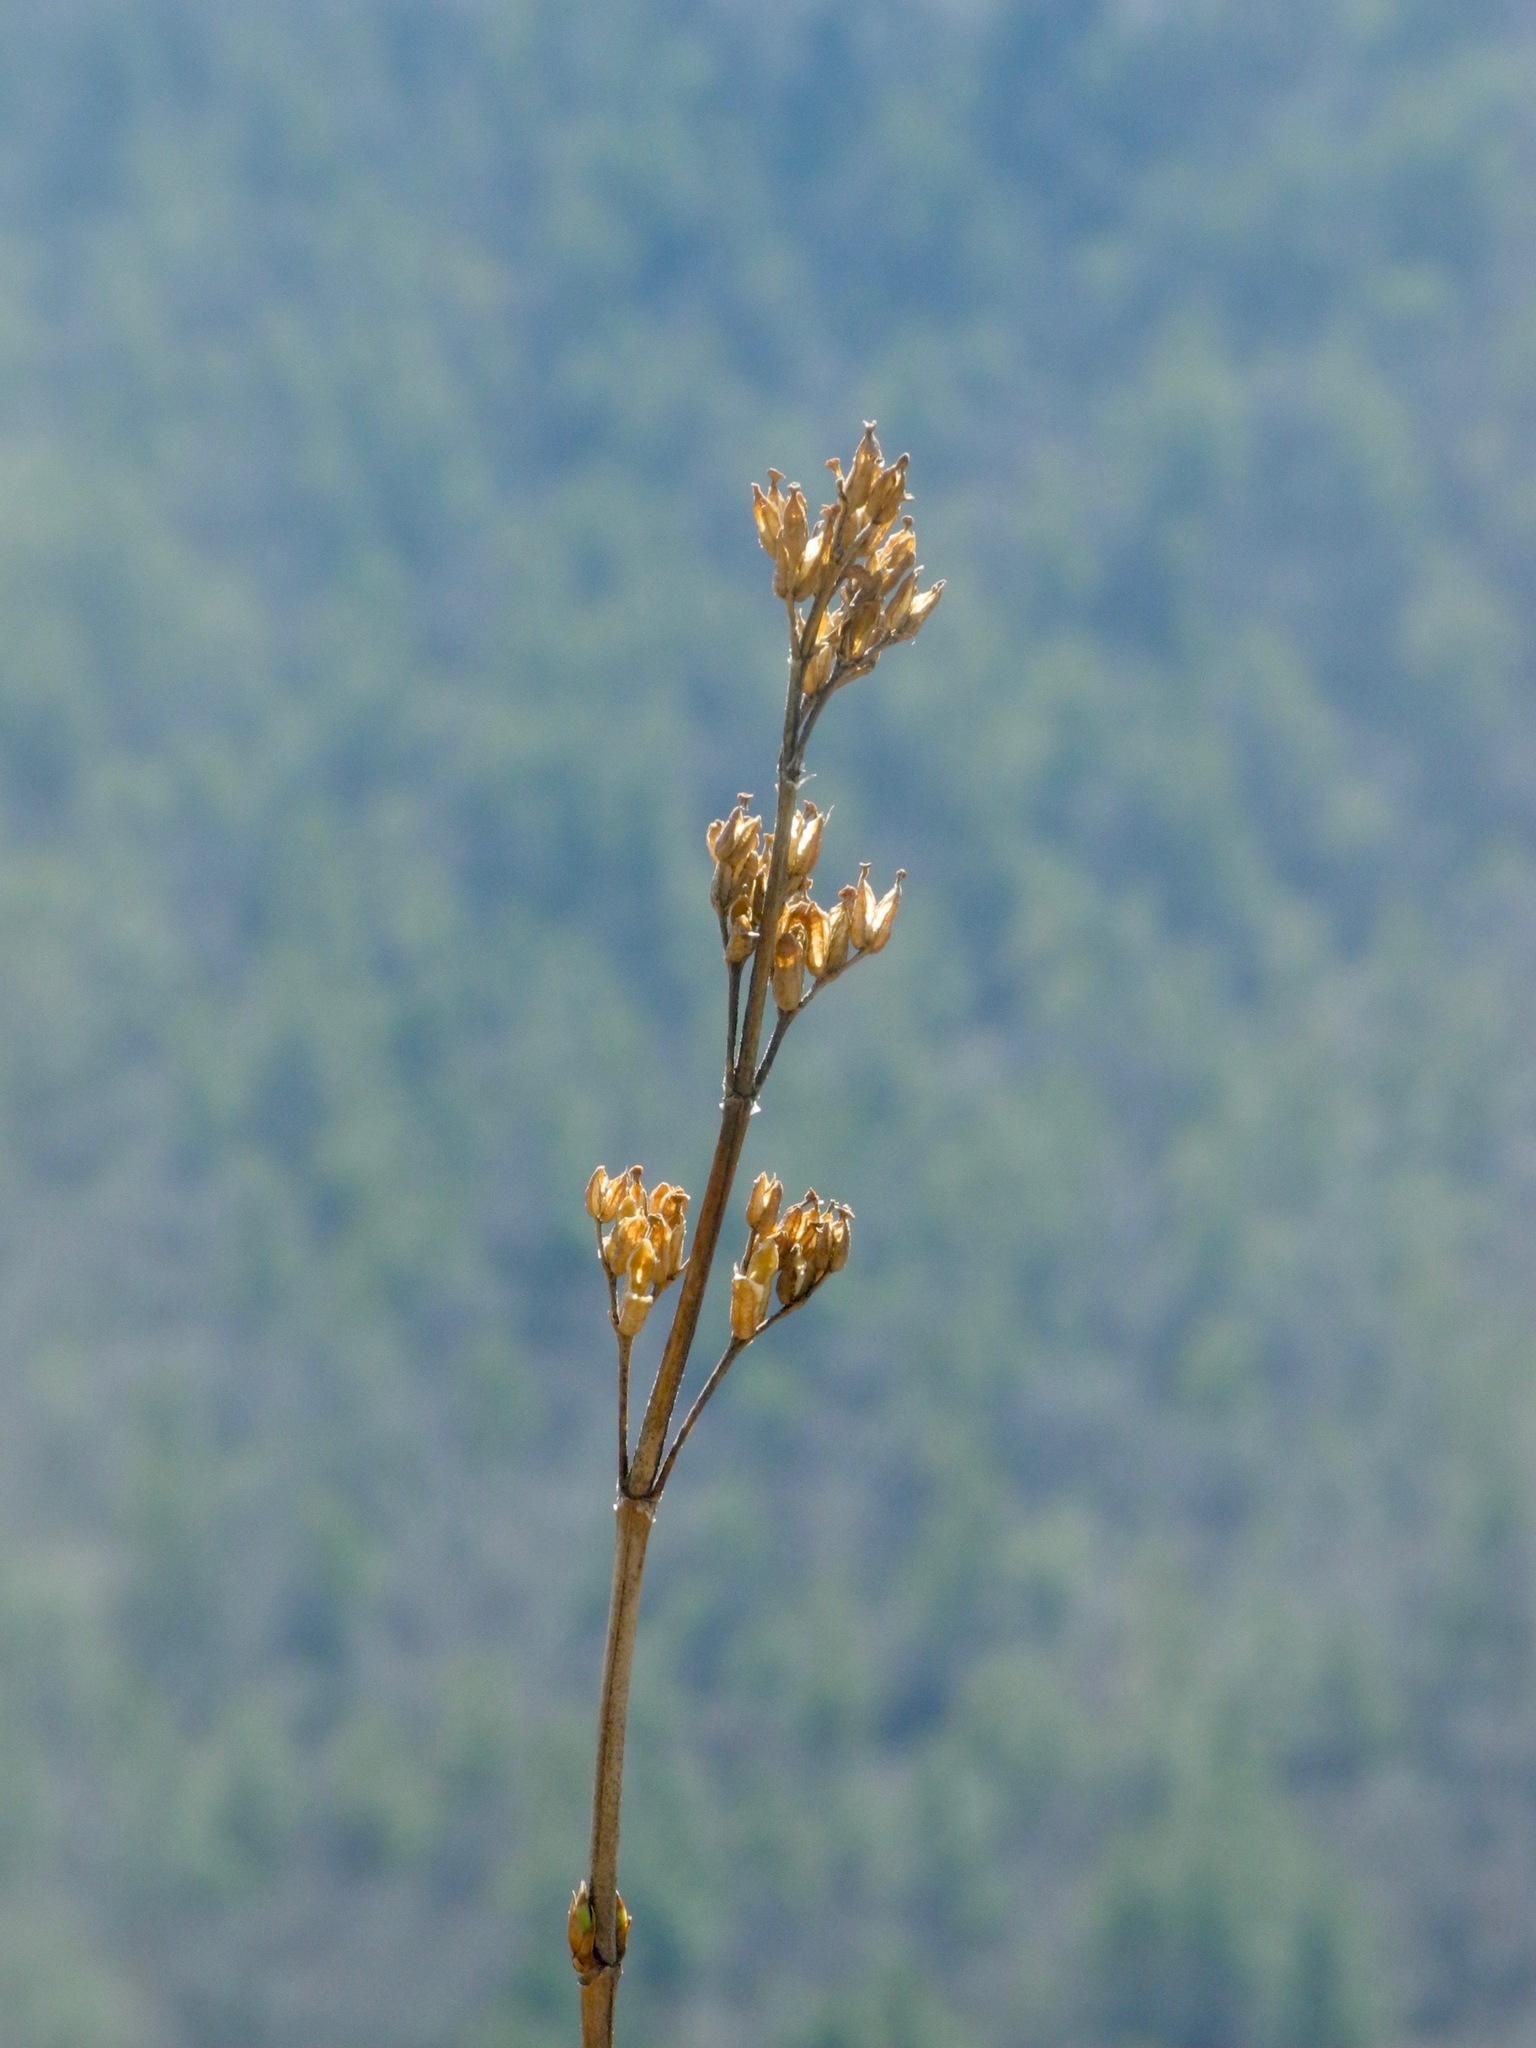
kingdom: Plantae
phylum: Tracheophyta
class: Magnoliopsida
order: Dipsacales
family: Caprifoliaceae
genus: Diervilla
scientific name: Diervilla sessilifolia
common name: Bush-honeysuckle
